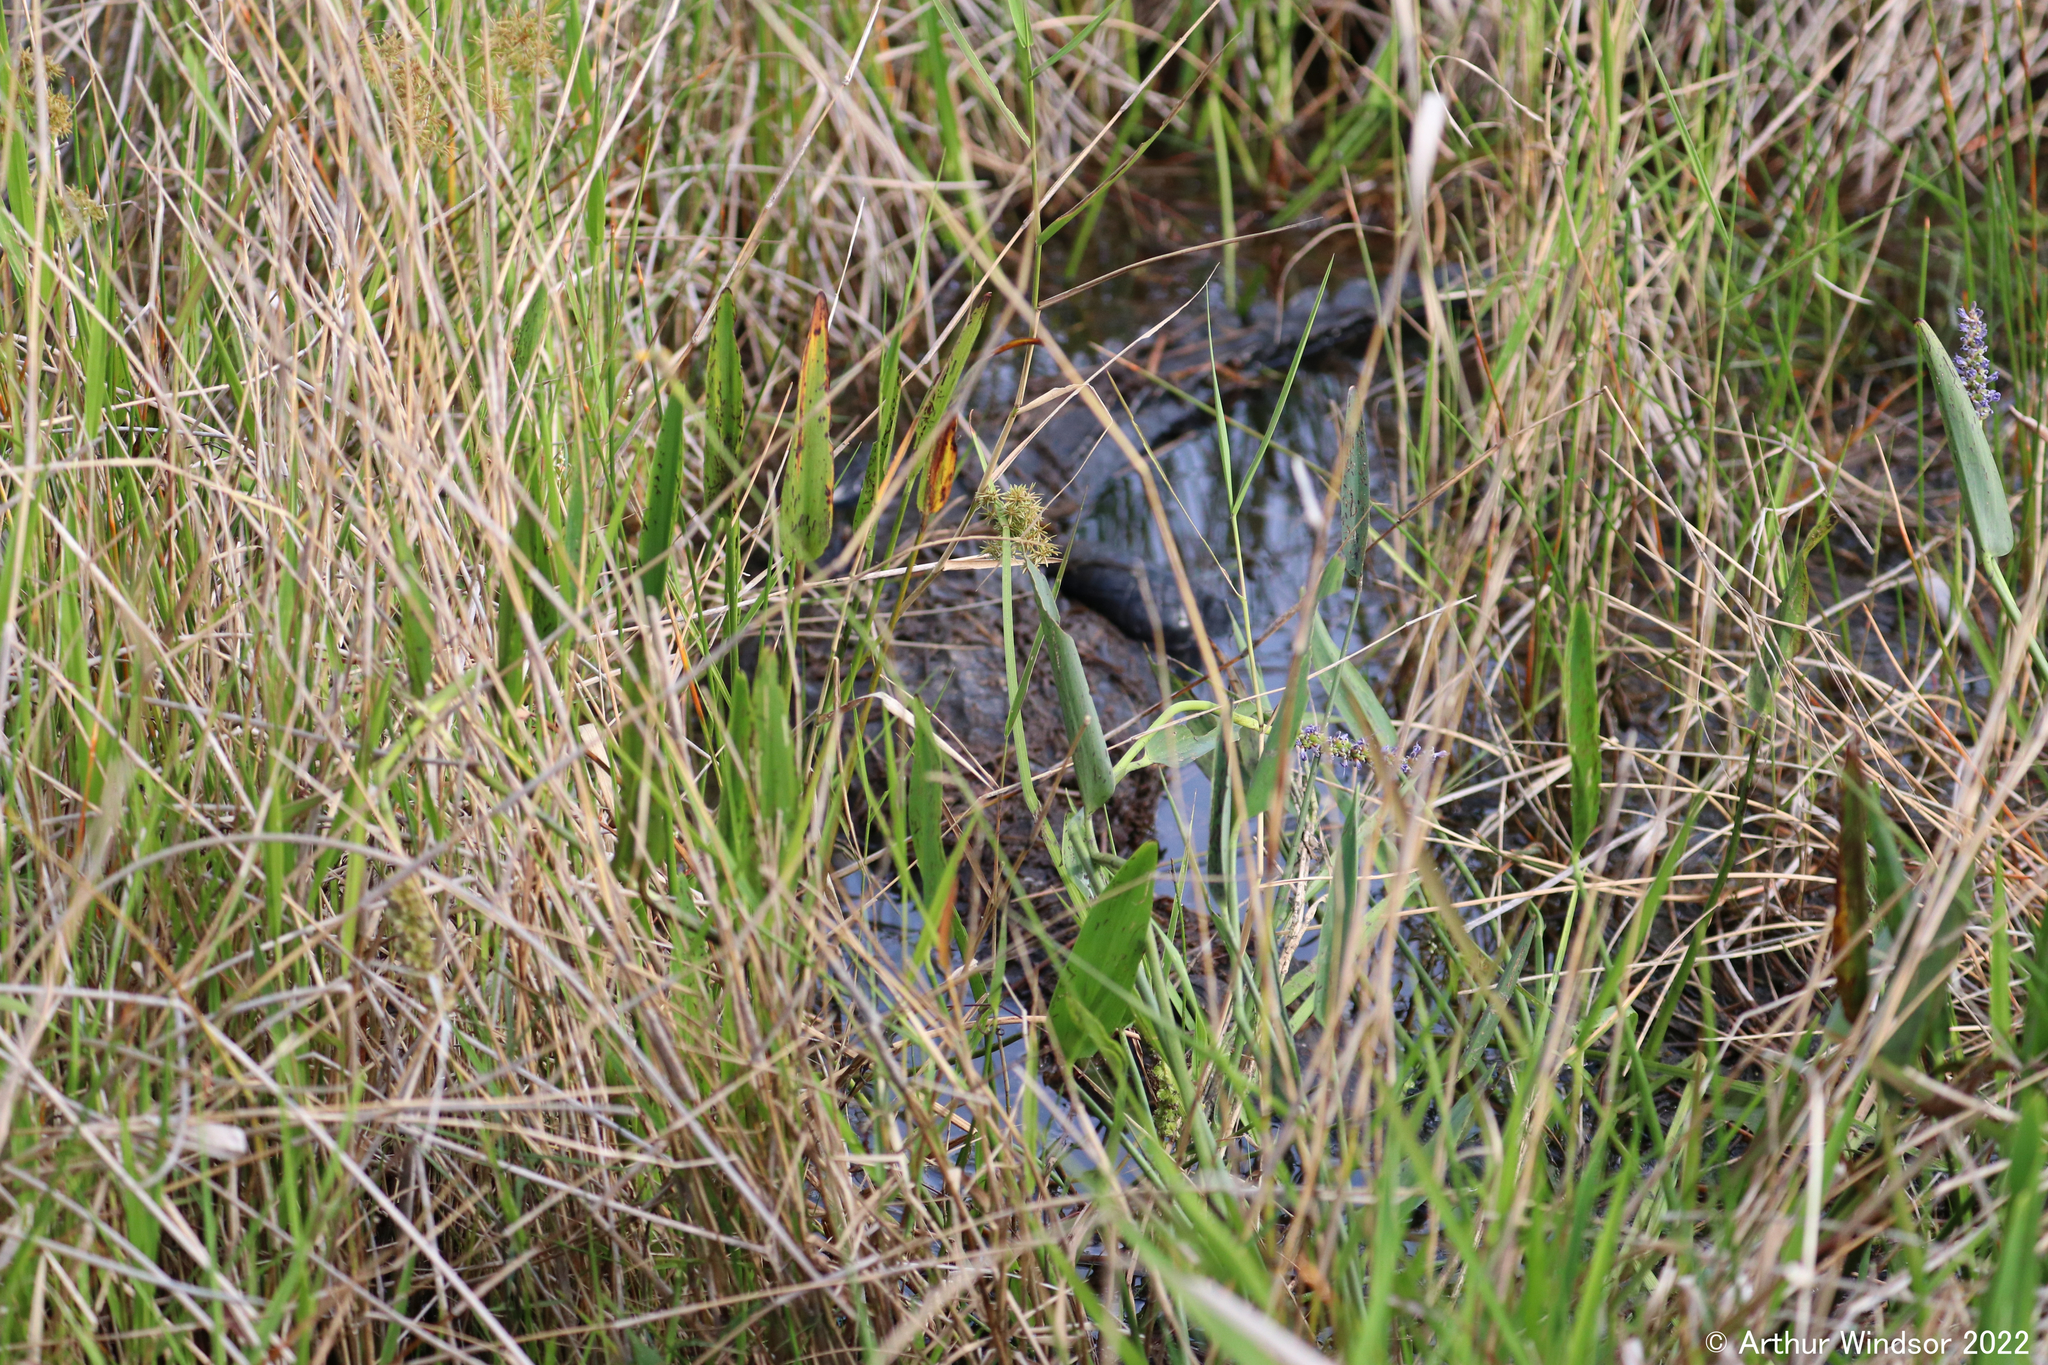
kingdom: Animalia
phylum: Chordata
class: Crocodylia
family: Alligatoridae
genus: Alligator
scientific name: Alligator mississippiensis
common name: American alligator
